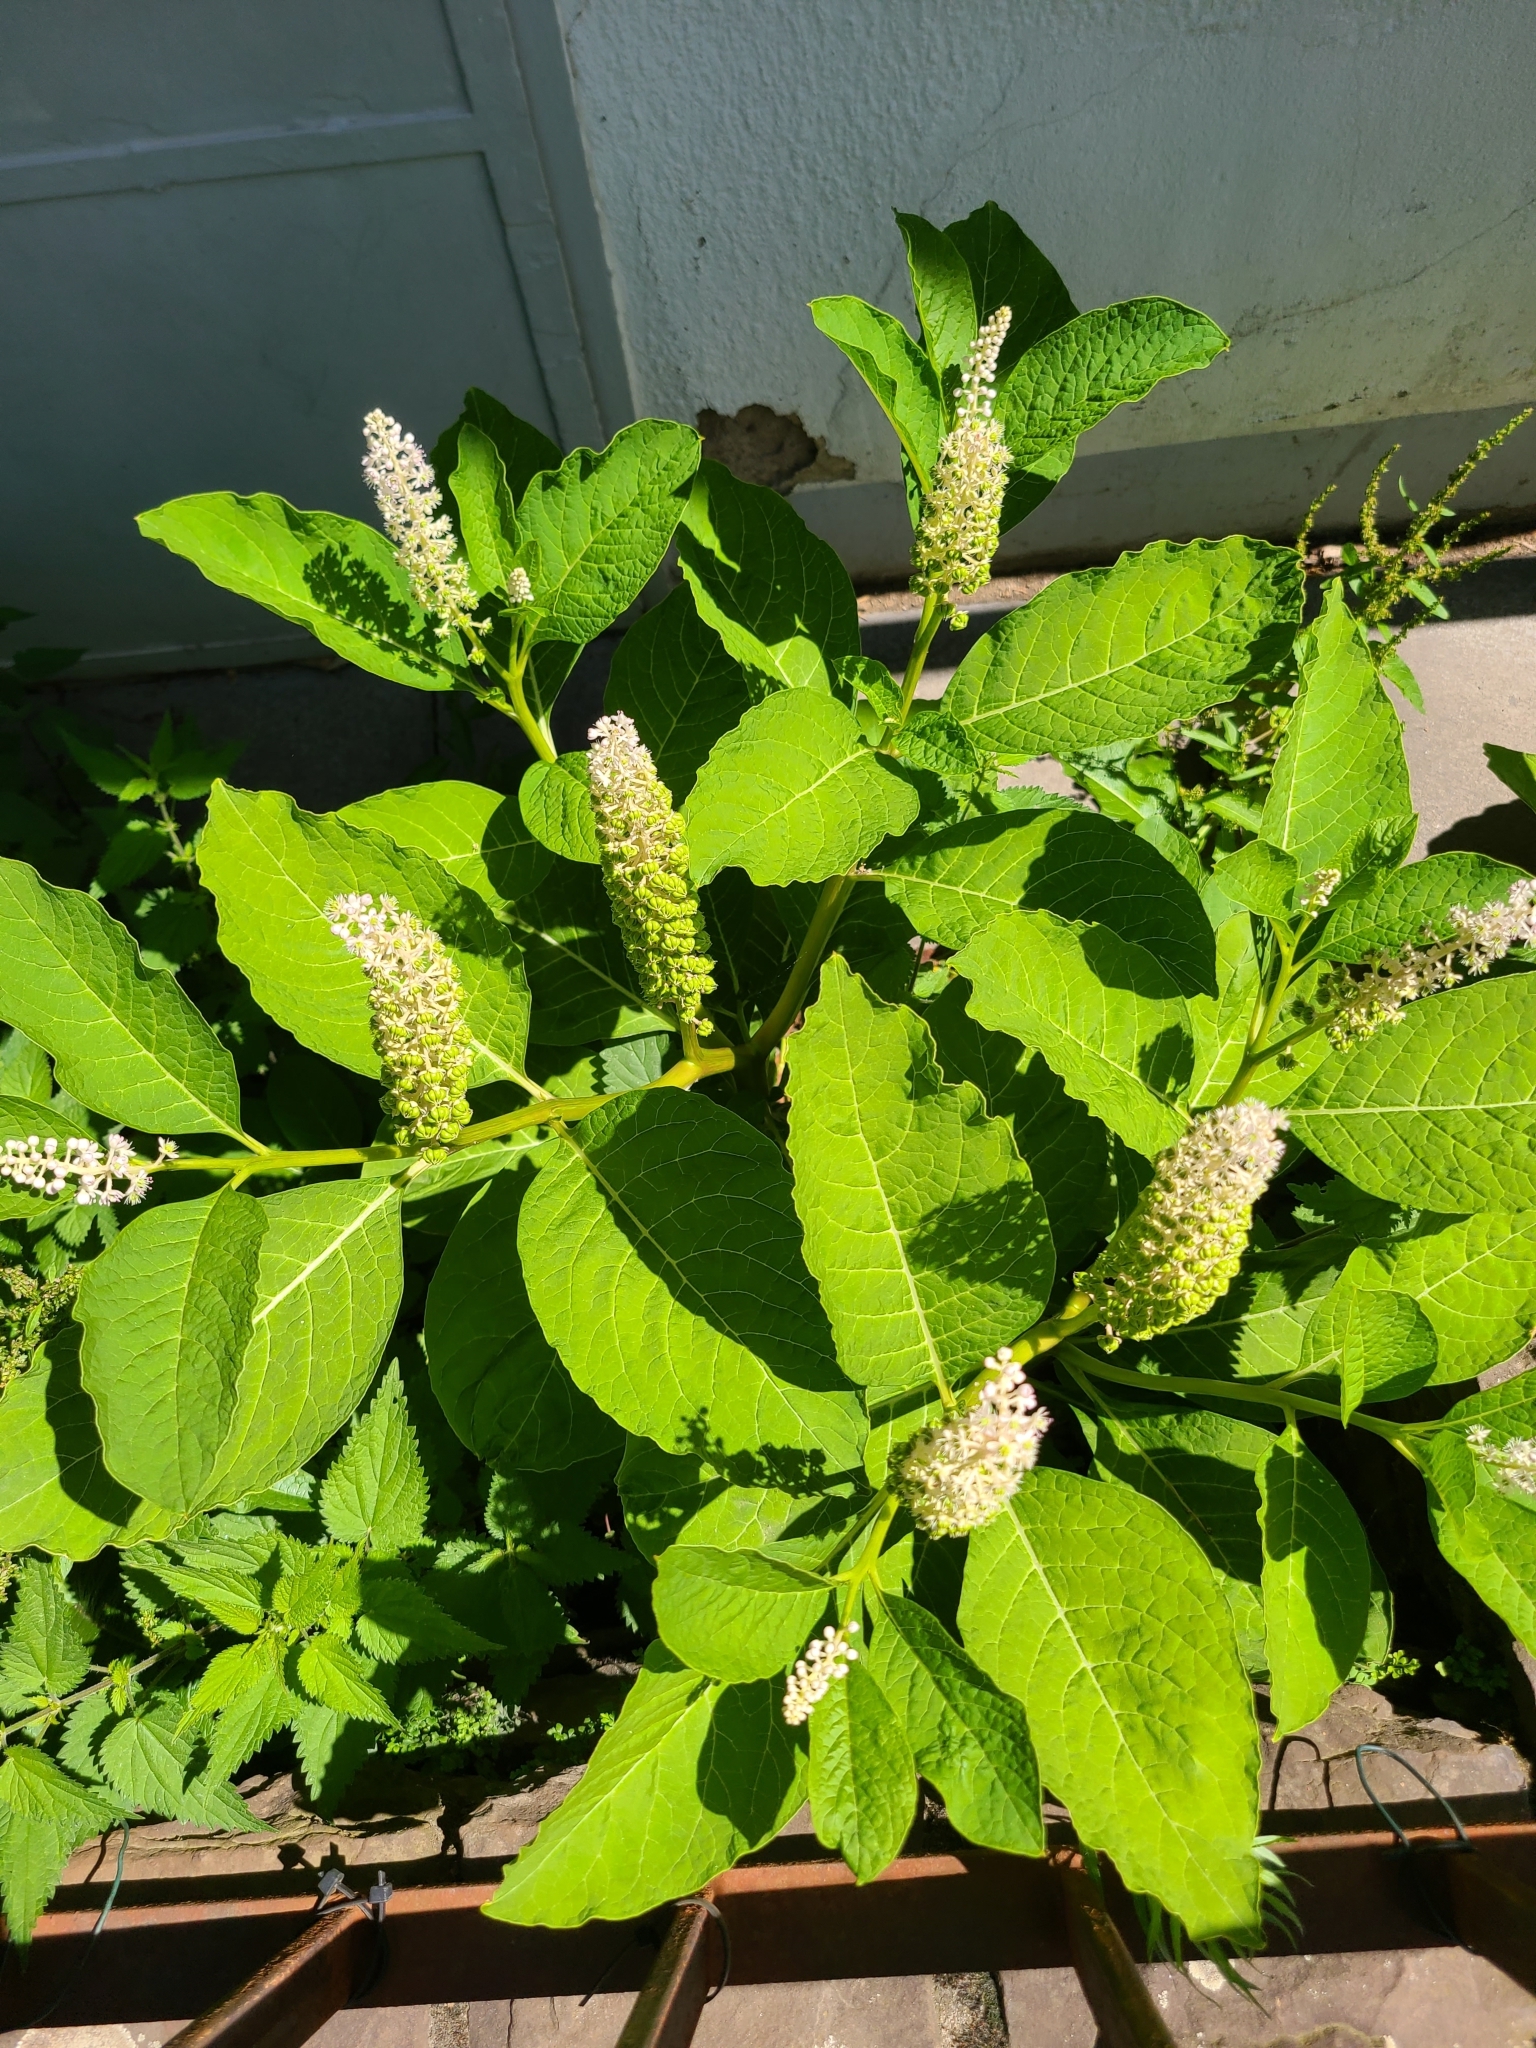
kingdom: Plantae
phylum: Tracheophyta
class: Magnoliopsida
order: Caryophyllales
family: Phytolaccaceae
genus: Phytolacca
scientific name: Phytolacca acinosa
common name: Indian pokeweed
